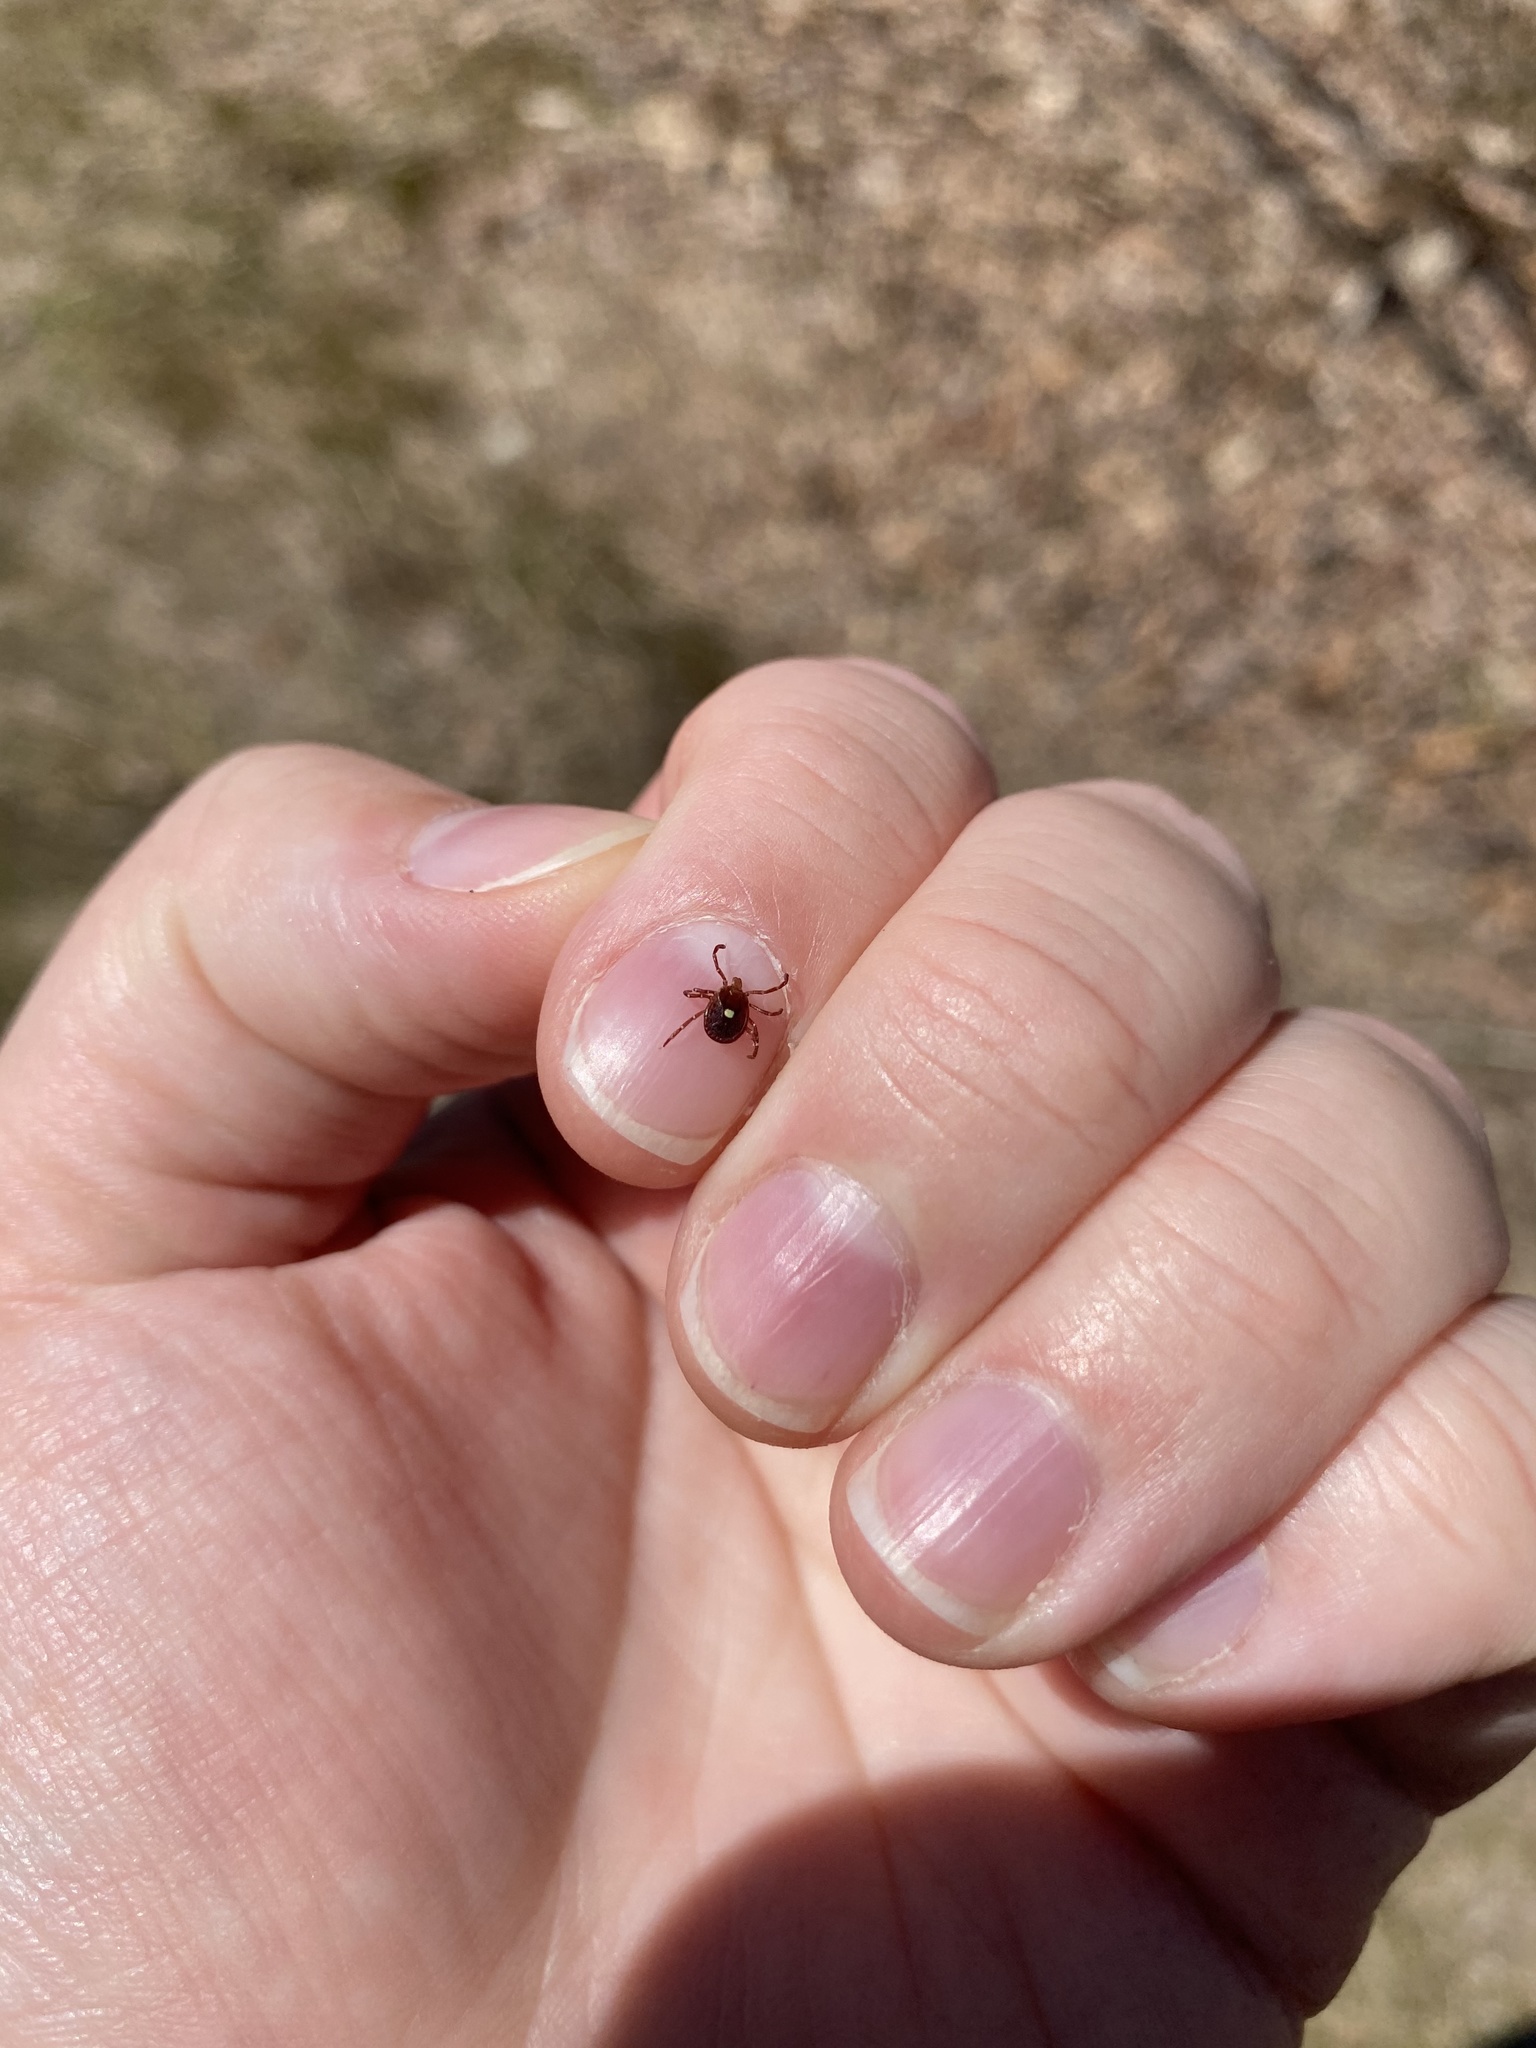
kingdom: Animalia
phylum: Arthropoda
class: Arachnida
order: Ixodida
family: Ixodidae
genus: Amblyomma
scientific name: Amblyomma americanum
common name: Lone star tick
